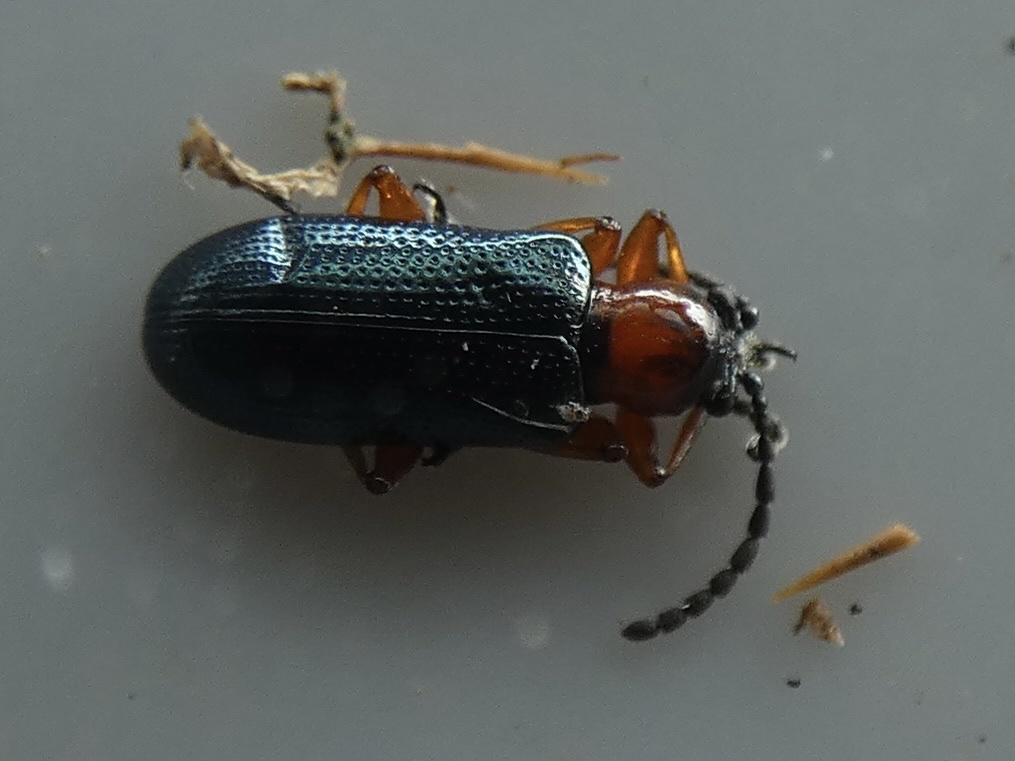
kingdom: Animalia
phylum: Arthropoda
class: Insecta
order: Coleoptera
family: Chrysomelidae
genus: Oulema
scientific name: Oulema
